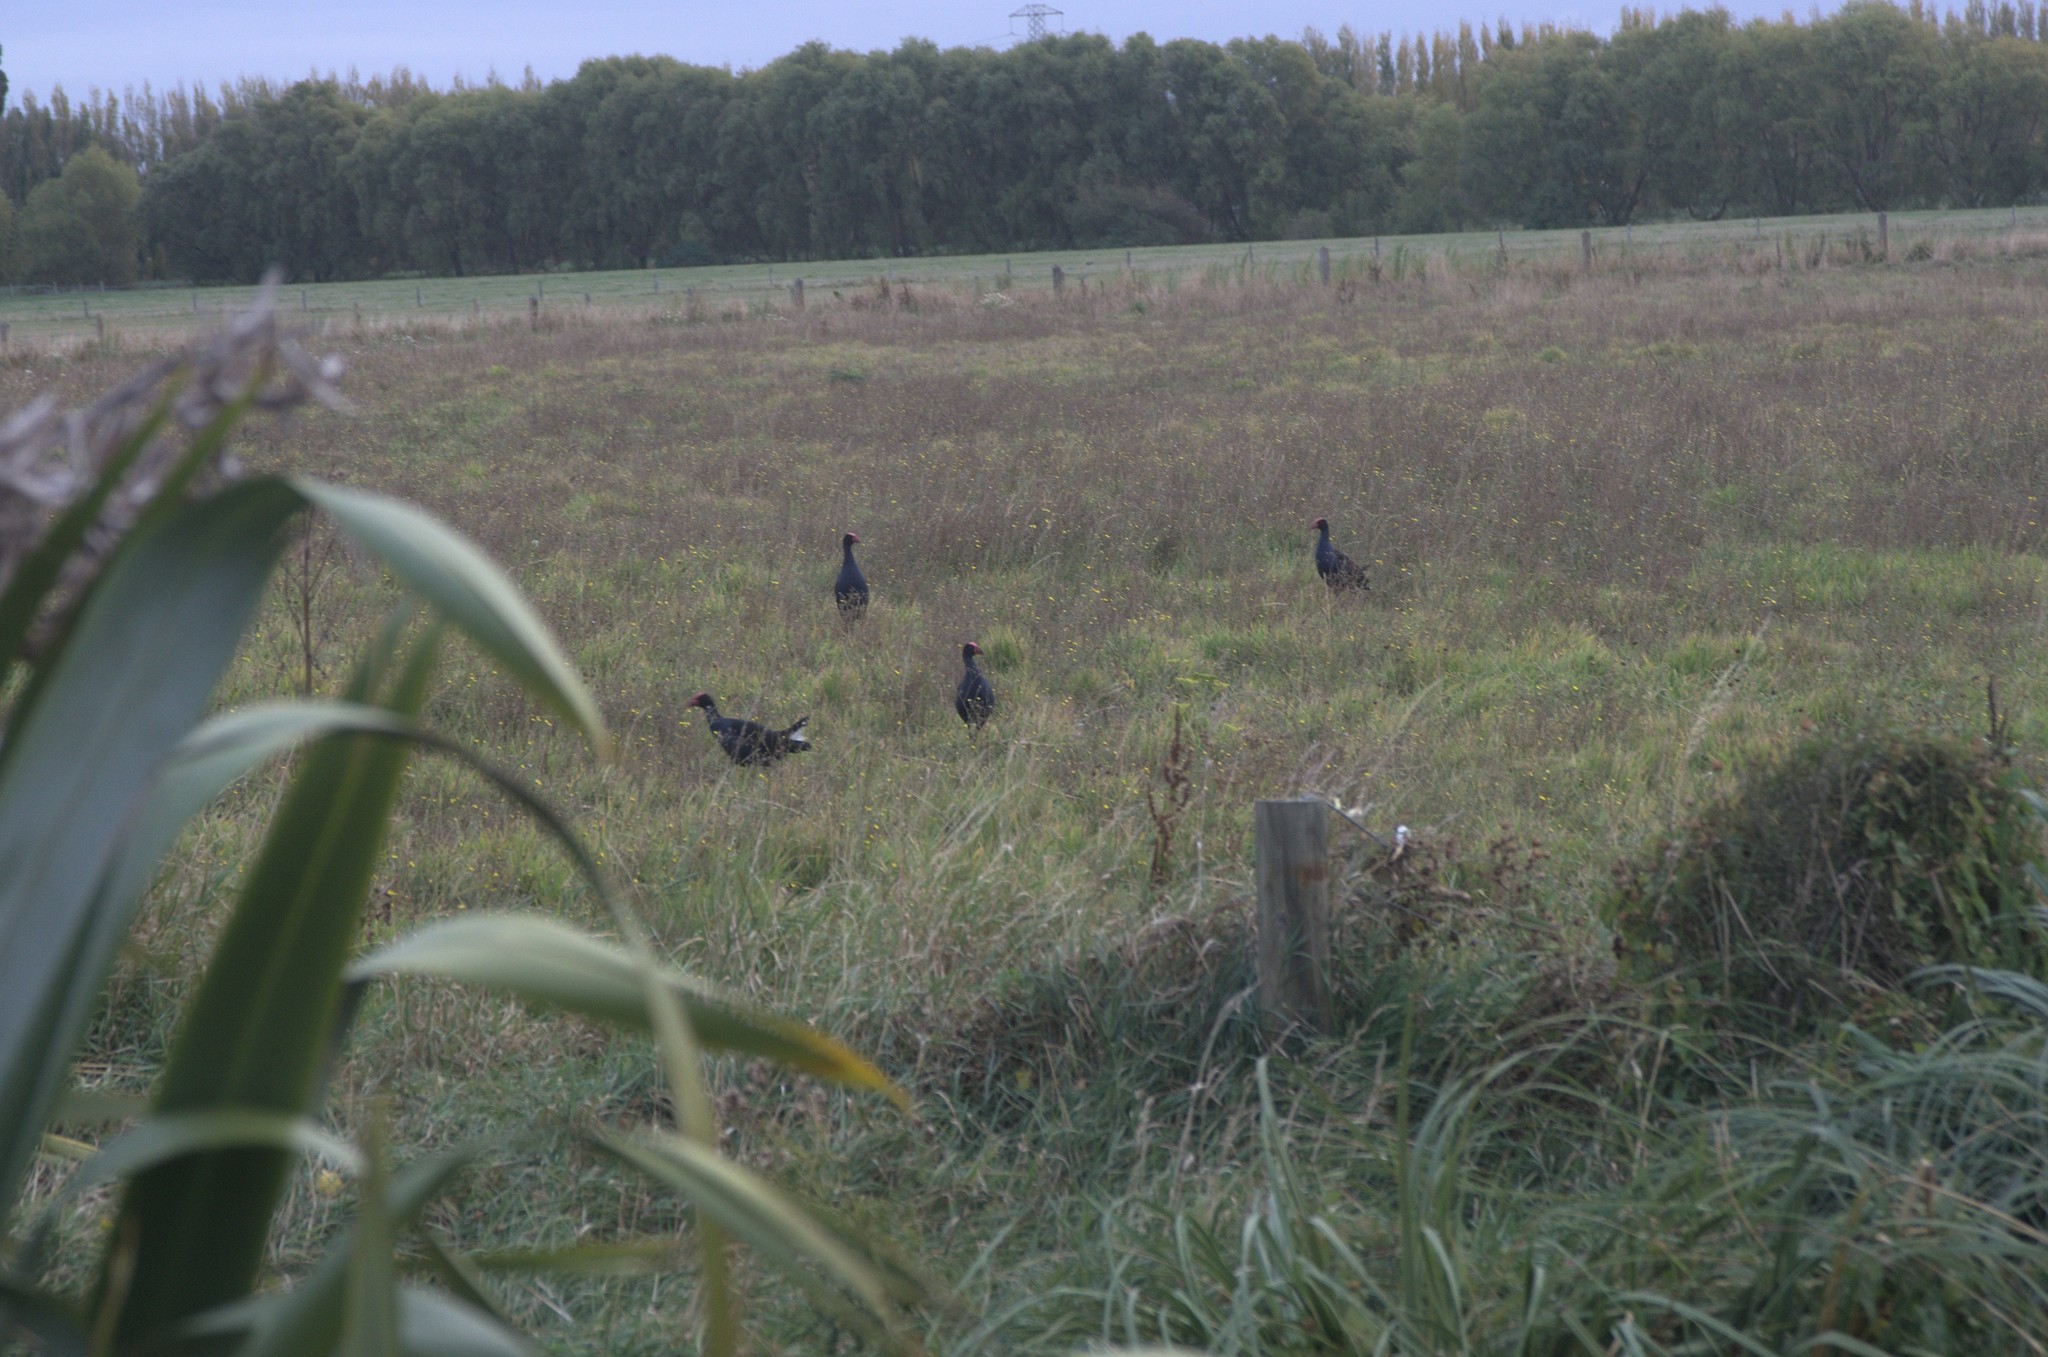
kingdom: Animalia
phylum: Chordata
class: Aves
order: Gruiformes
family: Rallidae
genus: Porphyrio
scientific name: Porphyrio melanotus
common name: Australasian swamphen
